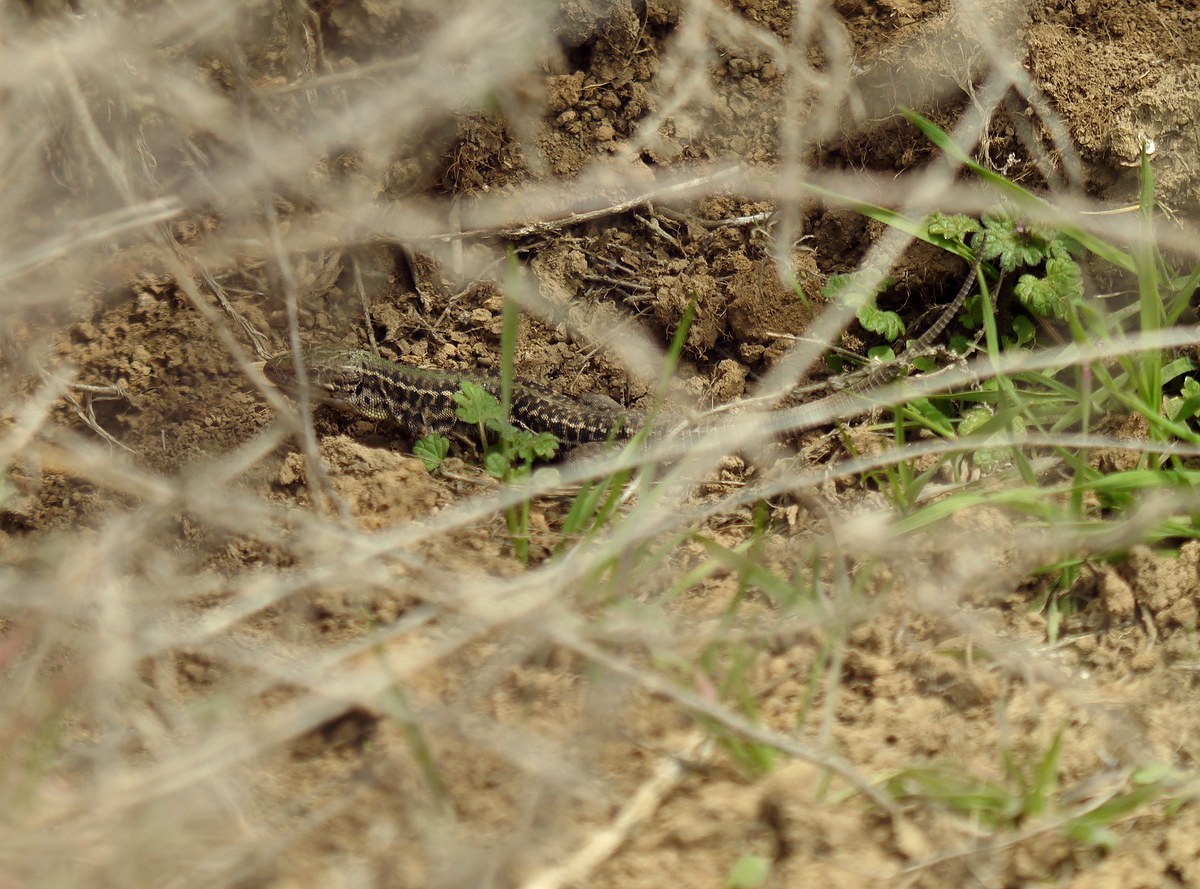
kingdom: Animalia
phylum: Chordata
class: Squamata
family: Lacertidae
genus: Podarcis
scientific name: Podarcis tauricus
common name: Balkan wall lizard
